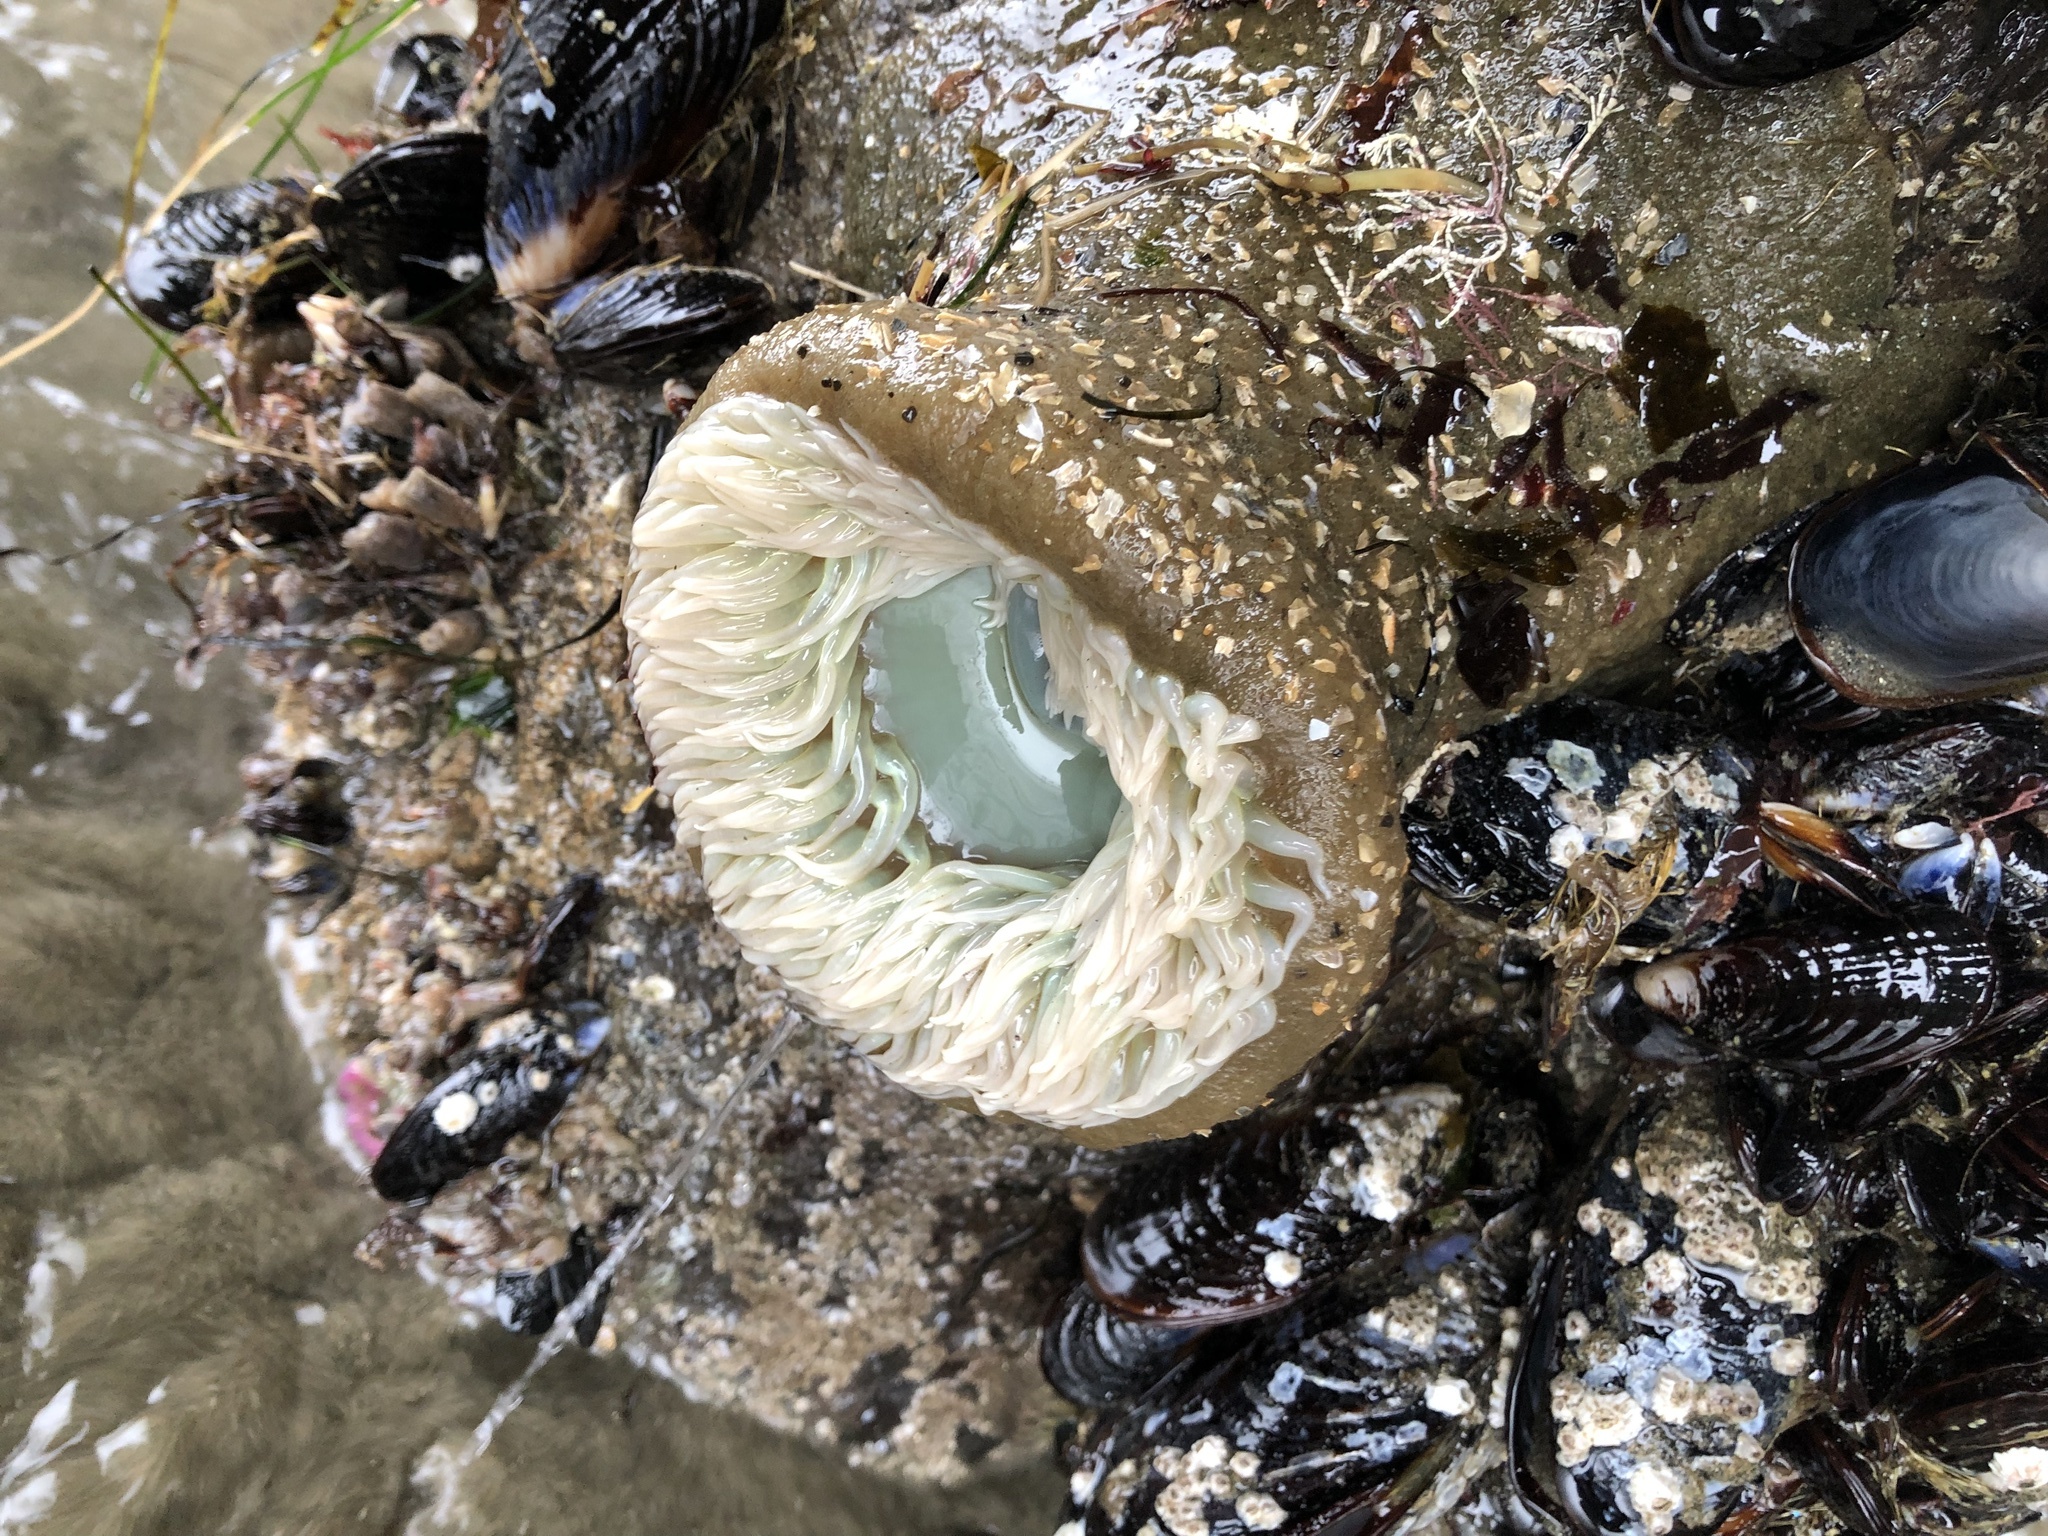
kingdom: Animalia
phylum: Cnidaria
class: Anthozoa
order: Actiniaria
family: Actiniidae
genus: Anthopleura
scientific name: Anthopleura xanthogrammica
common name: Giant green anemone
